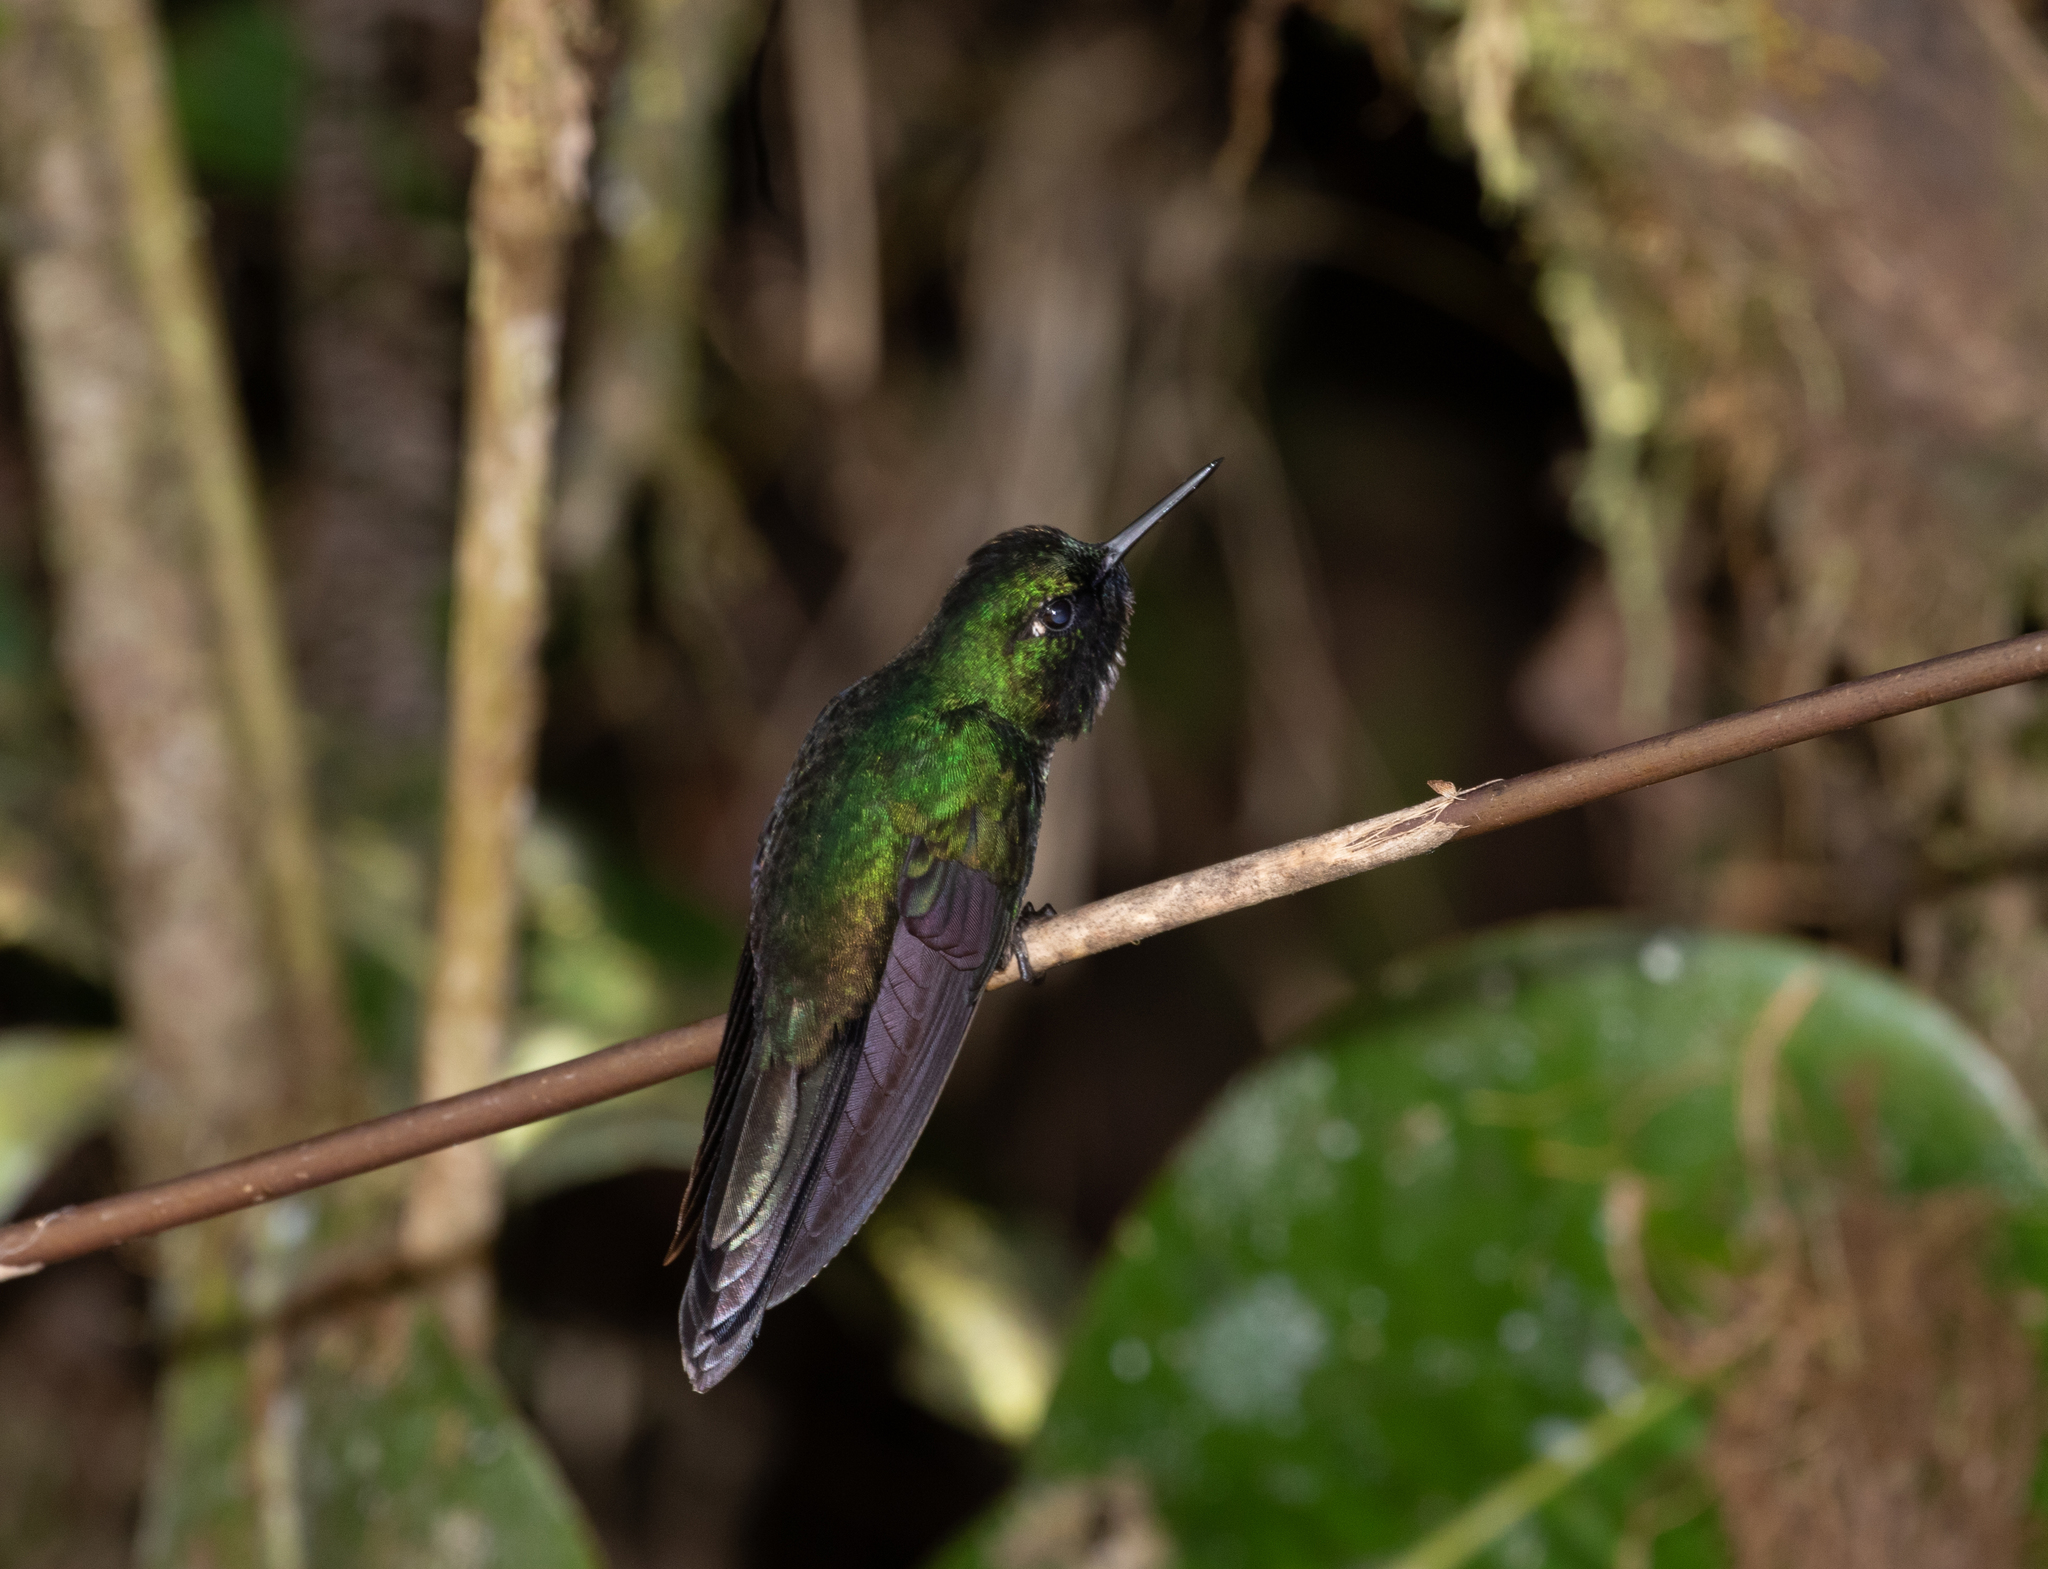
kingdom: Animalia
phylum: Chordata
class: Aves
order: Apodiformes
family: Trochilidae
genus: Heliangelus
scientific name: Heliangelus exortis
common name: Tourmaline sunangel
